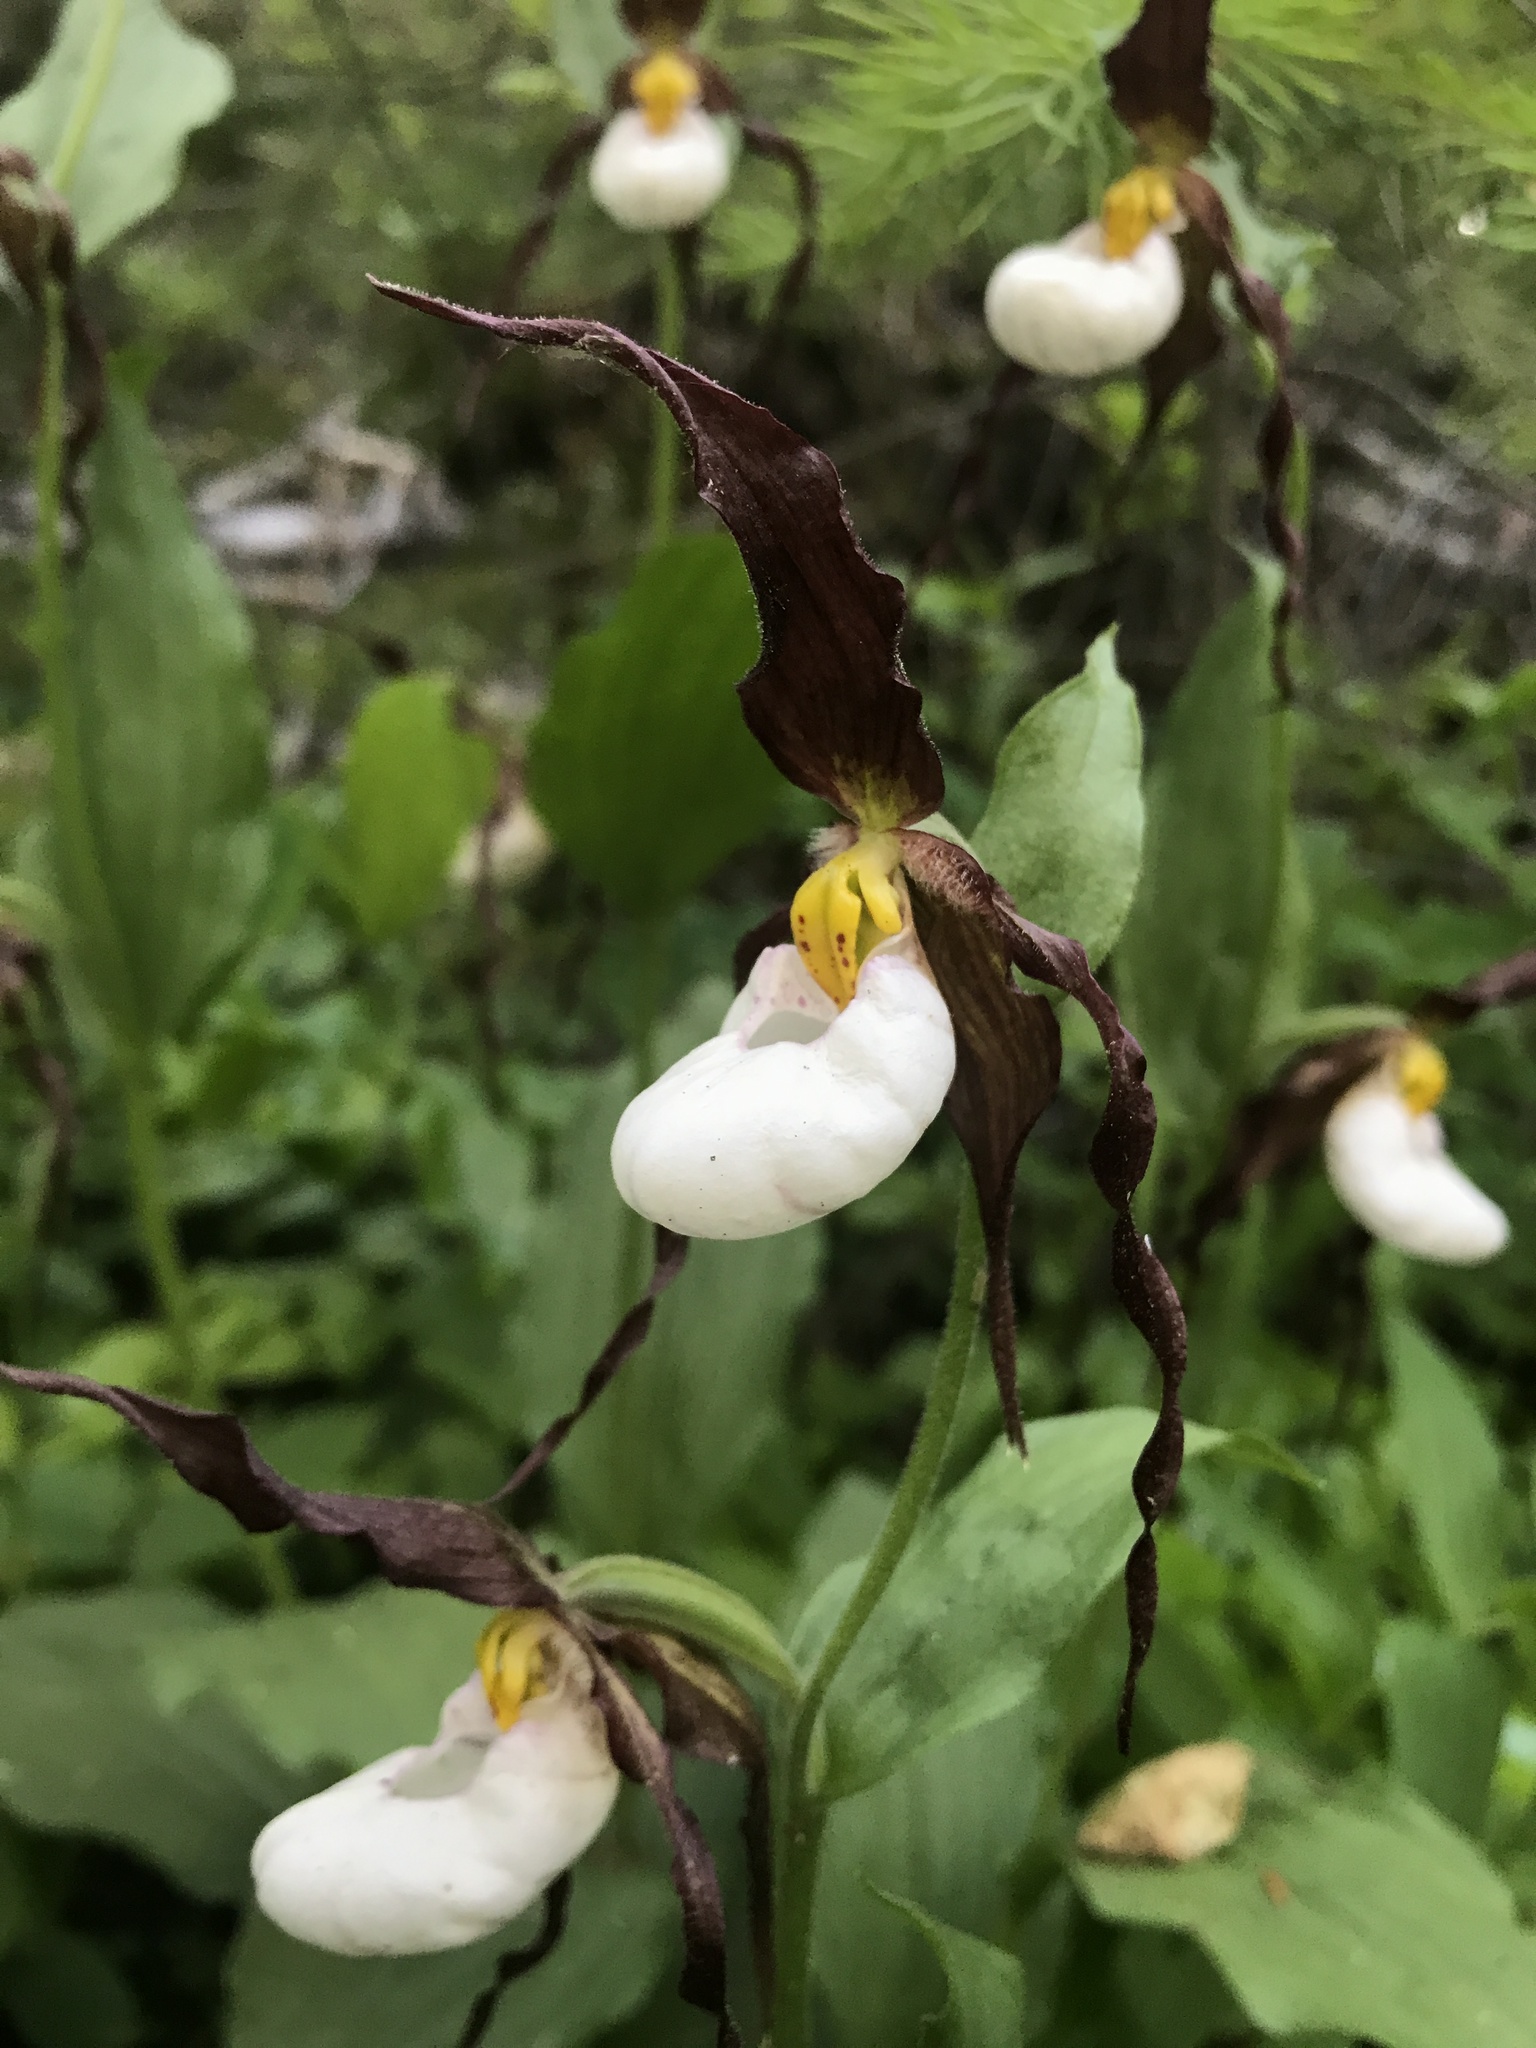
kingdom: Plantae
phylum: Tracheophyta
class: Liliopsida
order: Asparagales
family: Orchidaceae
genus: Cypripedium
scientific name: Cypripedium montanum
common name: Mountain lady's-slipper
